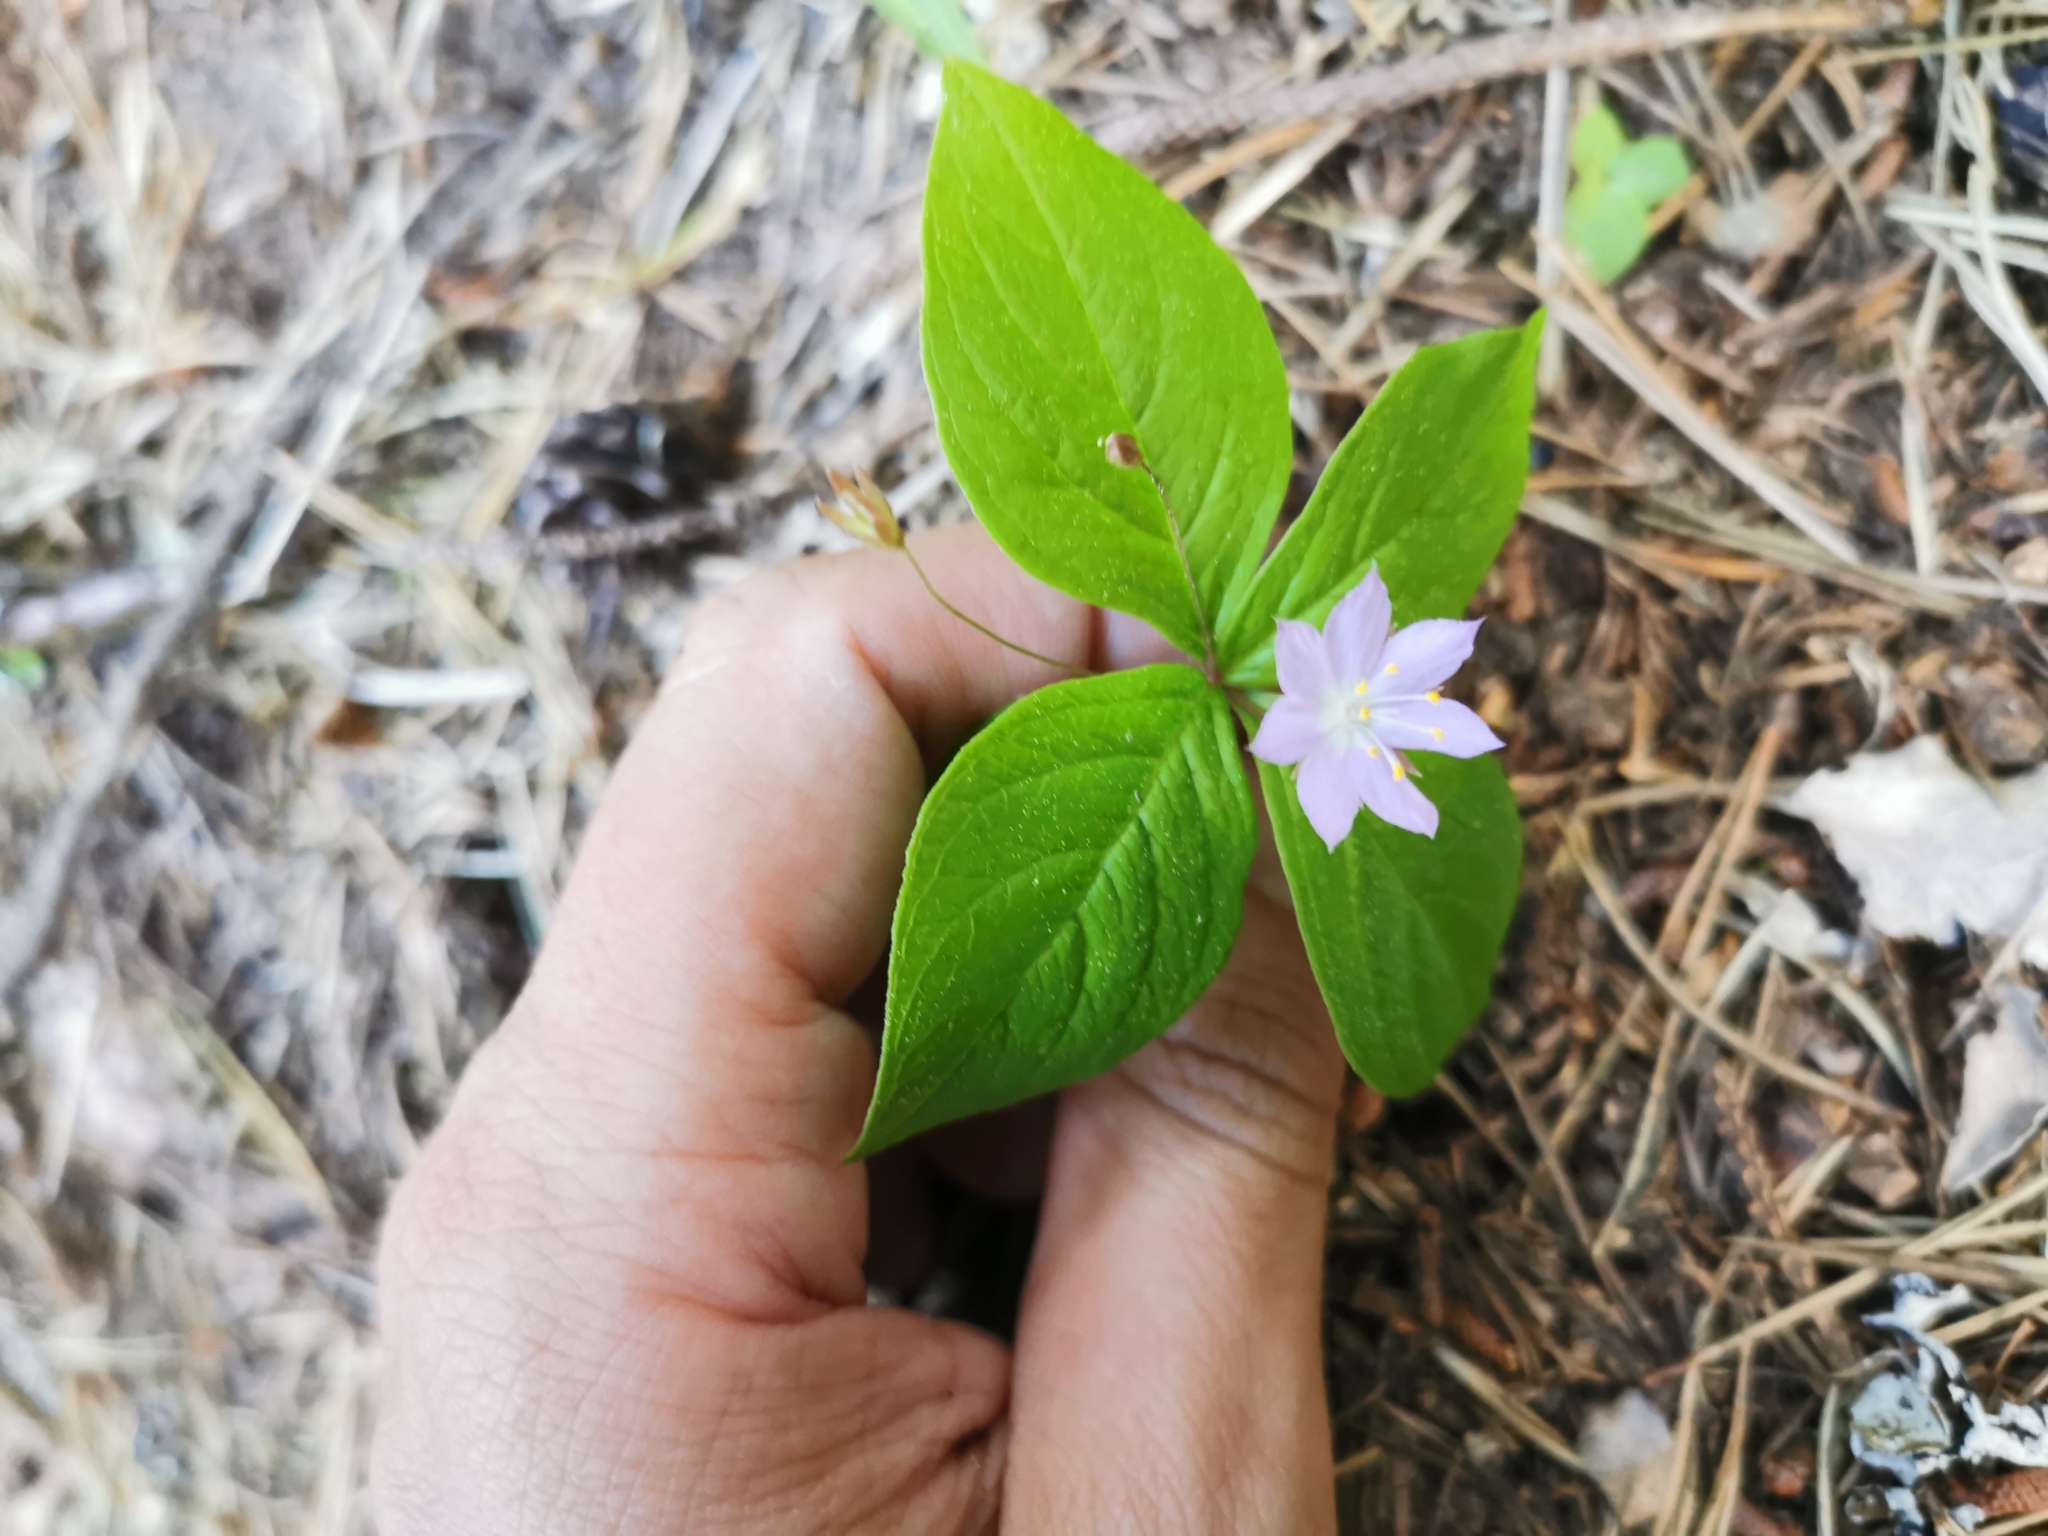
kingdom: Plantae
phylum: Tracheophyta
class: Magnoliopsida
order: Ericales
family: Primulaceae
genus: Lysimachia
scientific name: Lysimachia latifolia
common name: Pacific starflower
